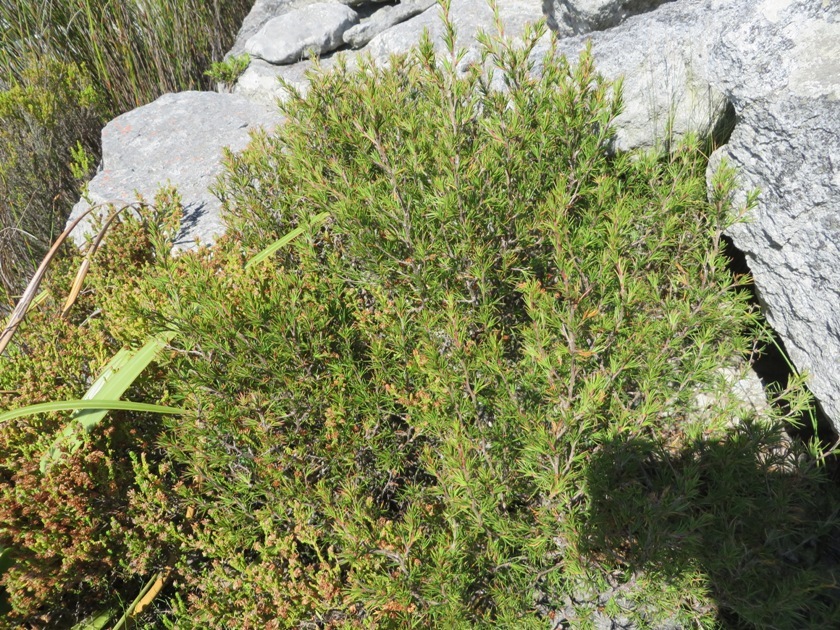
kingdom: Plantae
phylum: Tracheophyta
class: Magnoliopsida
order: Rosales
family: Rosaceae
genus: Cliffortia
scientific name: Cliffortia atrata
